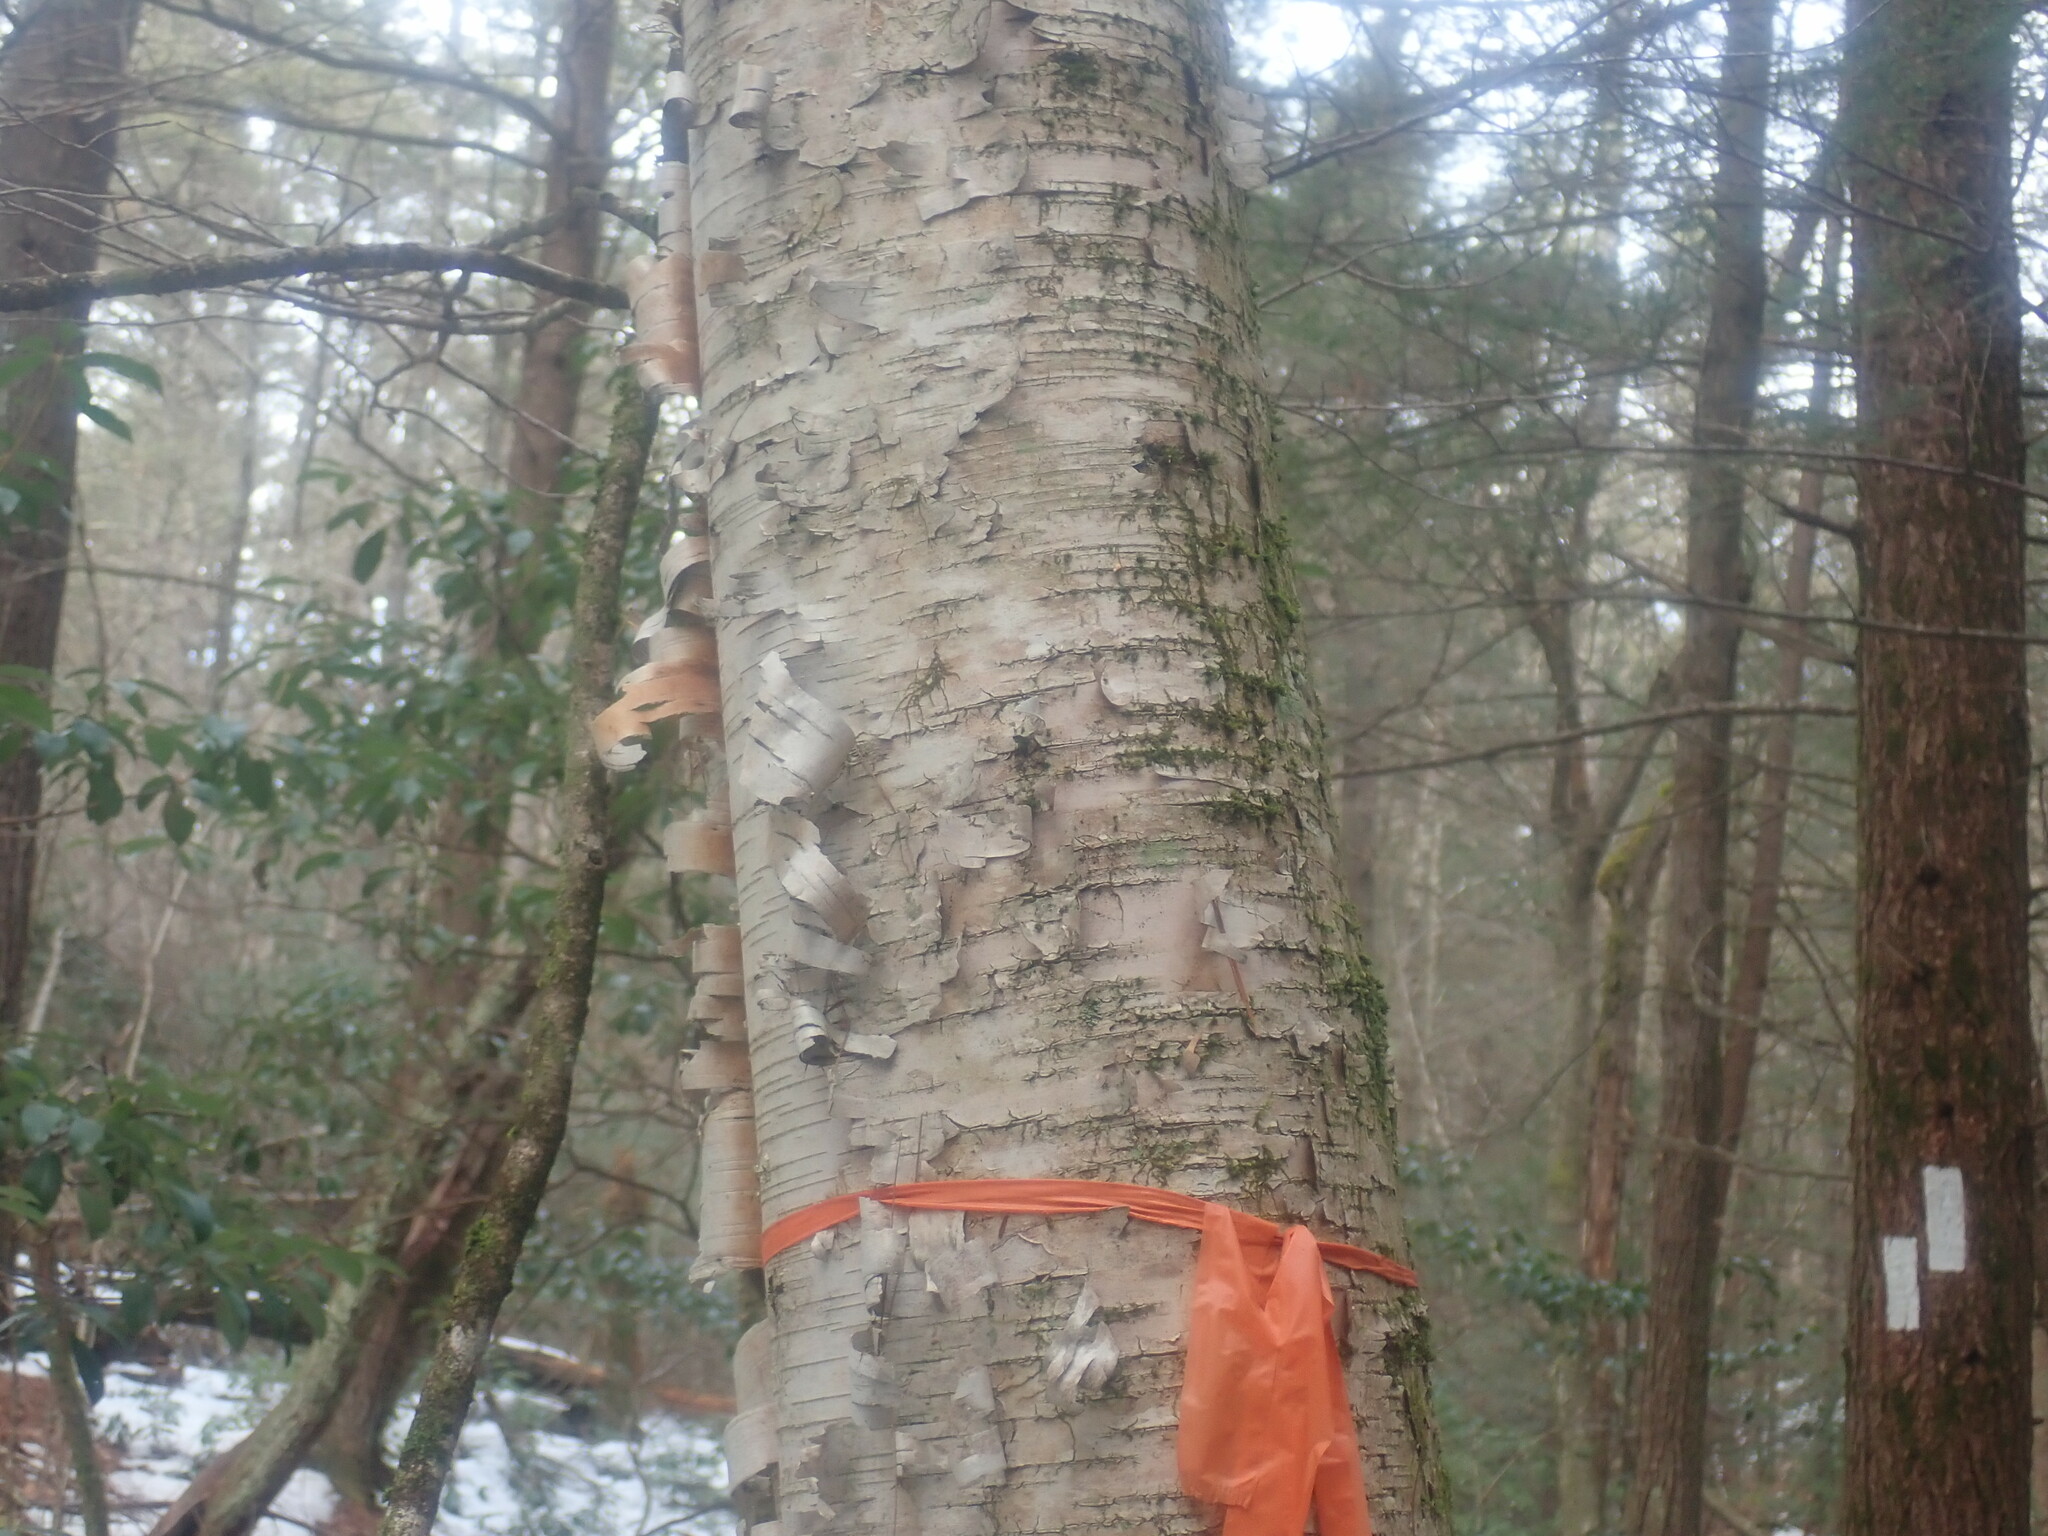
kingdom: Plantae
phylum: Tracheophyta
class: Magnoliopsida
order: Fagales
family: Betulaceae
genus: Betula
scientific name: Betula papyrifera
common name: Paper birch
